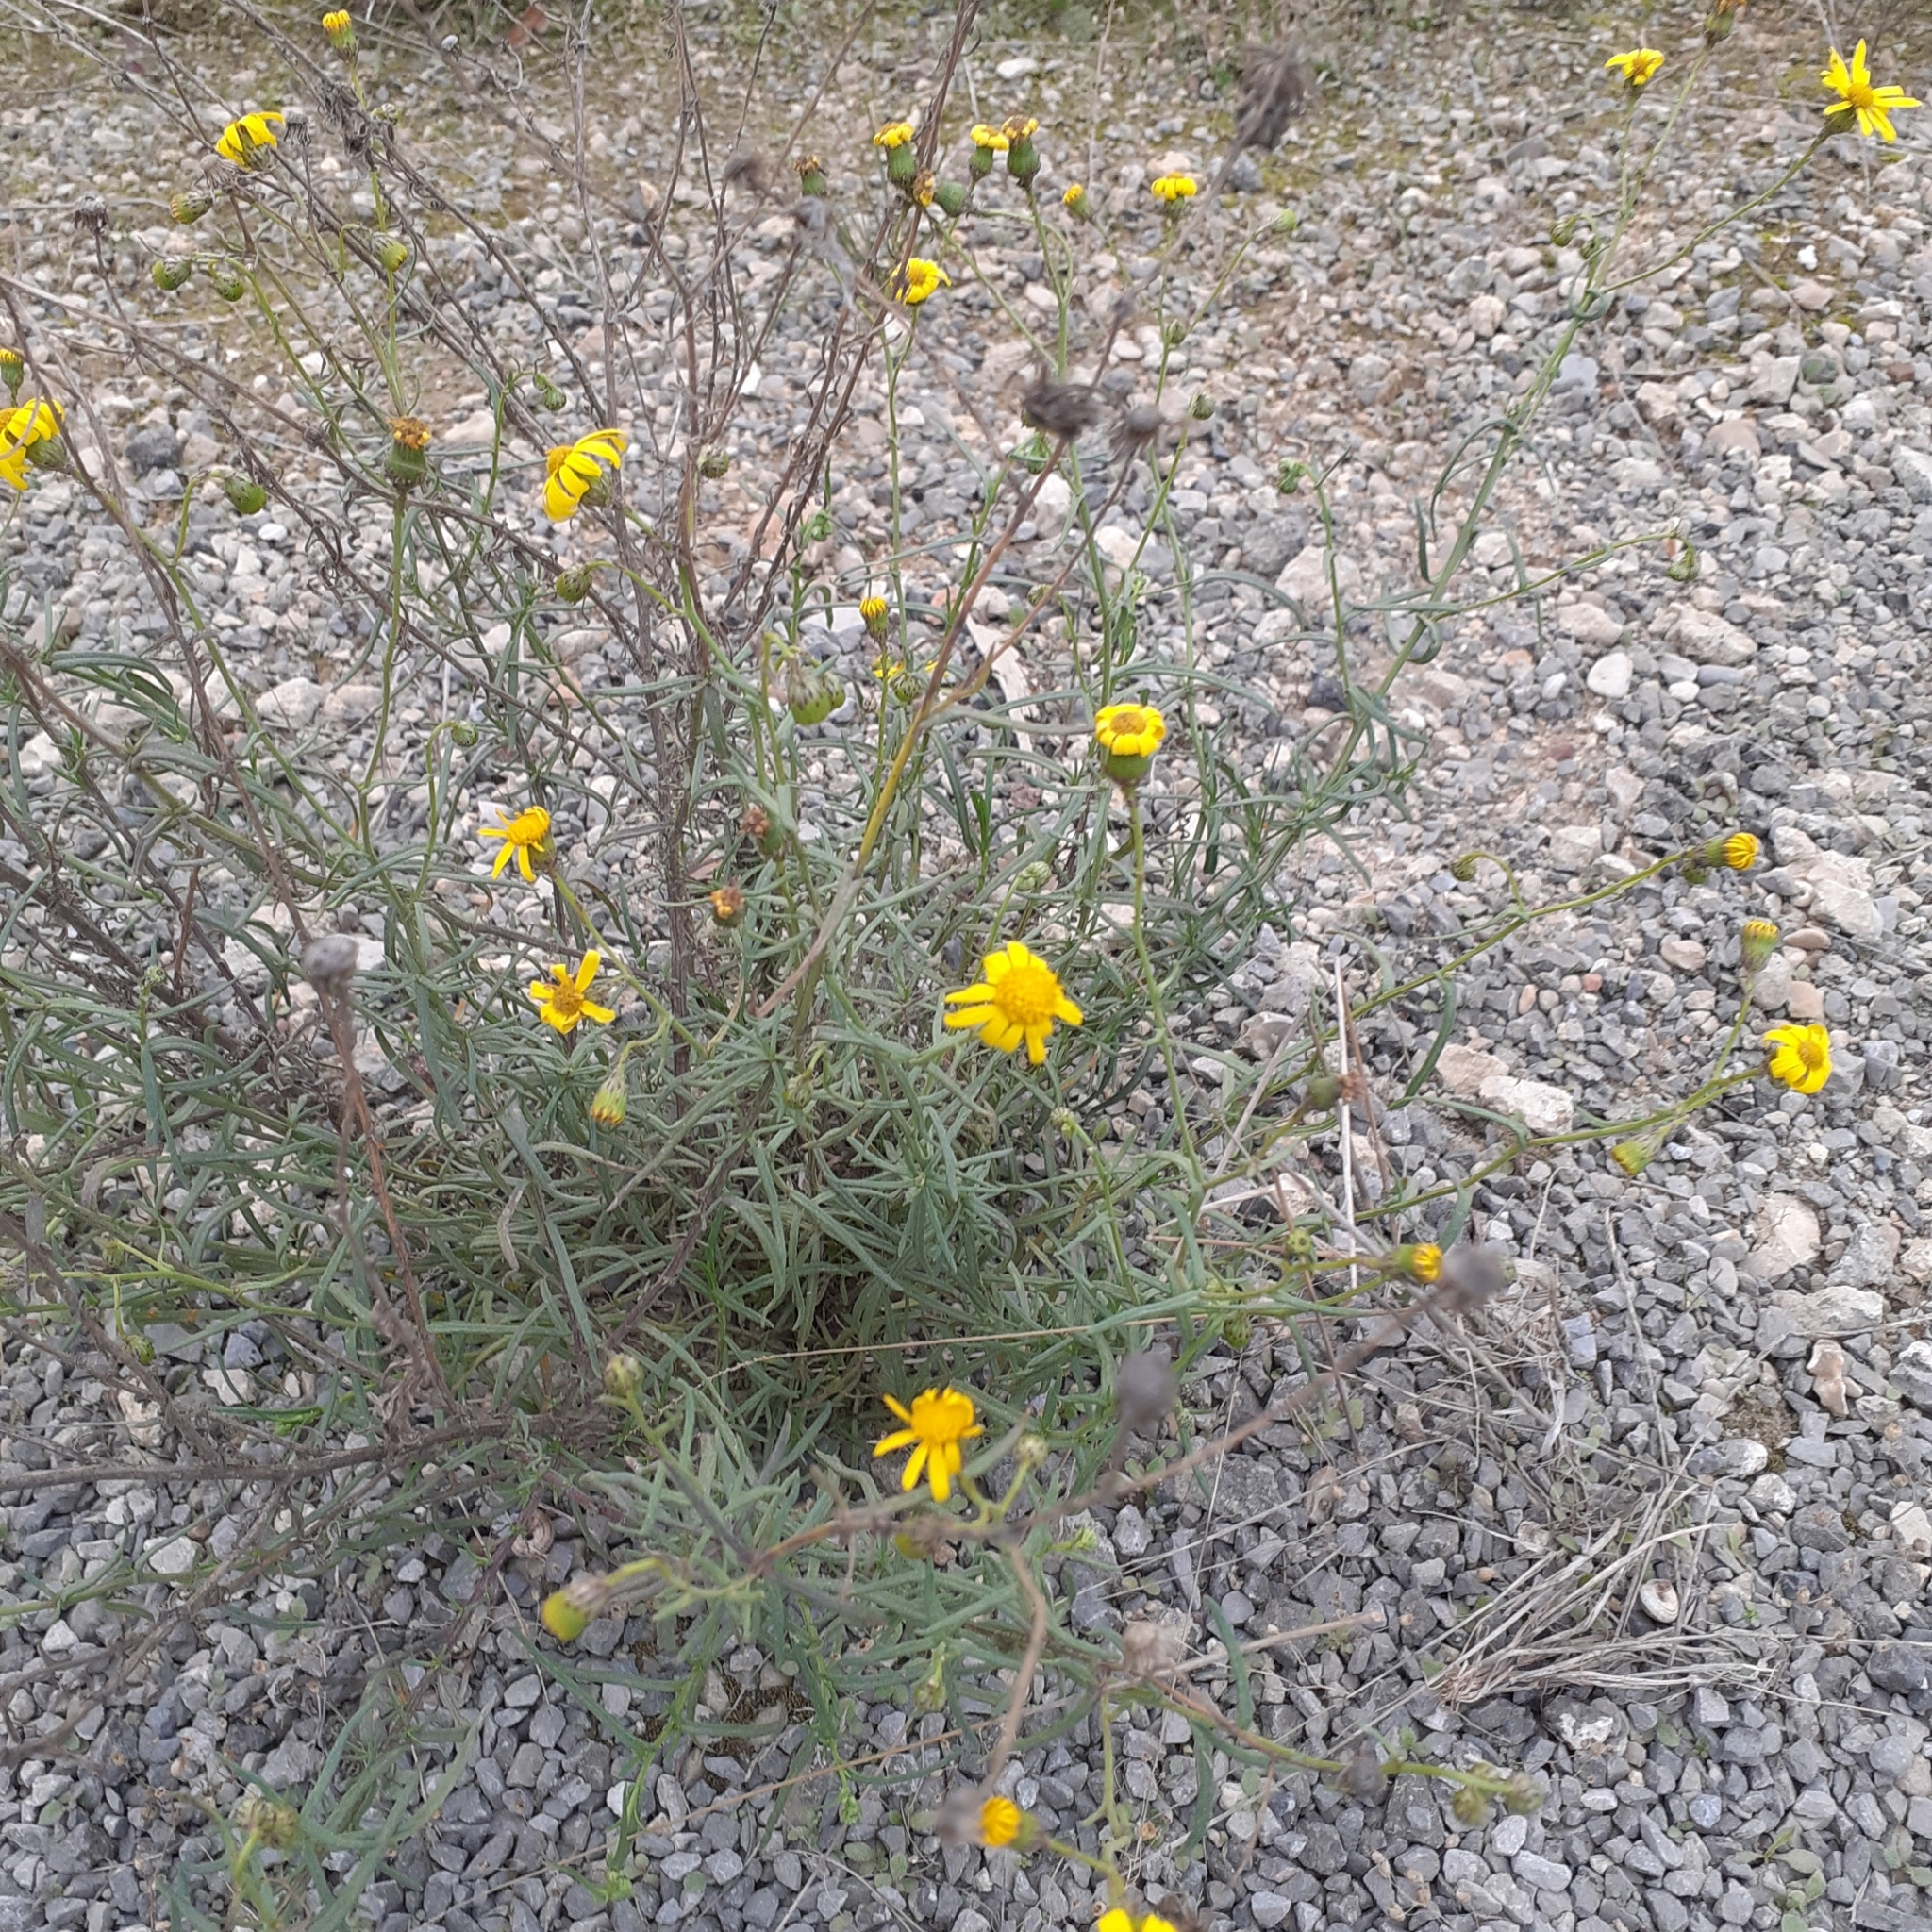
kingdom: Plantae
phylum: Tracheophyta
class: Magnoliopsida
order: Asterales
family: Asteraceae
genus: Senecio
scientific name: Senecio inaequidens
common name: Narrow-leaved ragwort
